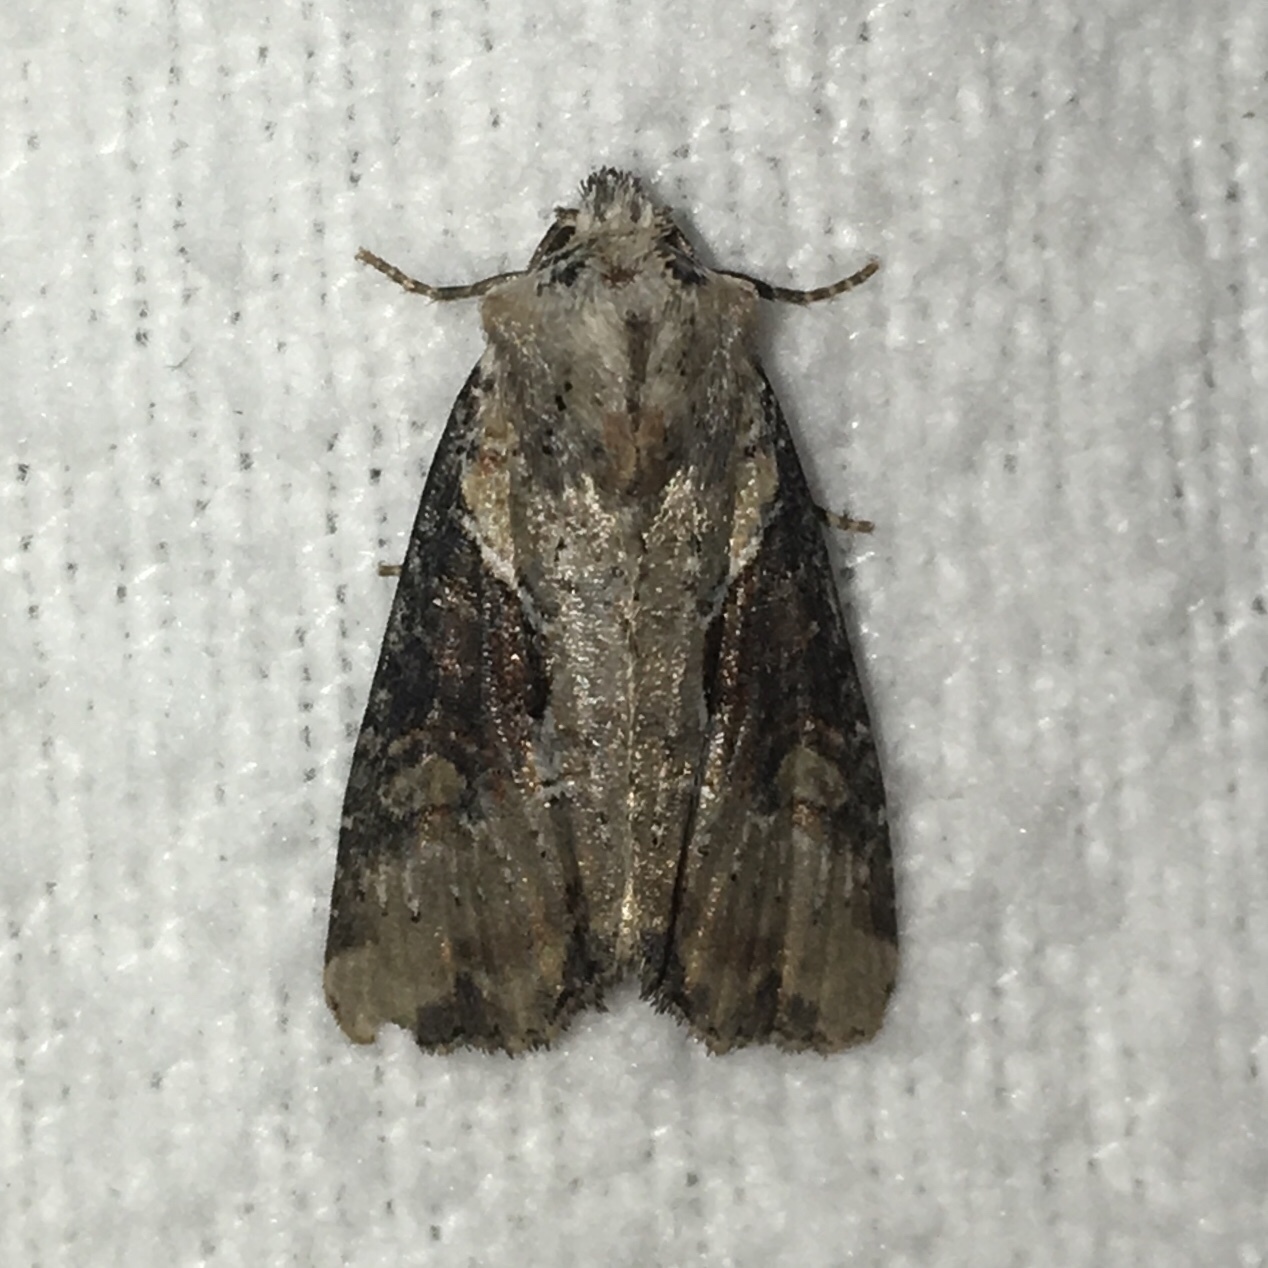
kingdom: Animalia
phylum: Arthropoda
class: Insecta
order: Lepidoptera
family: Noctuidae
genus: Lateroligia
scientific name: Lateroligia ophiogramma
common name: Double lobed
